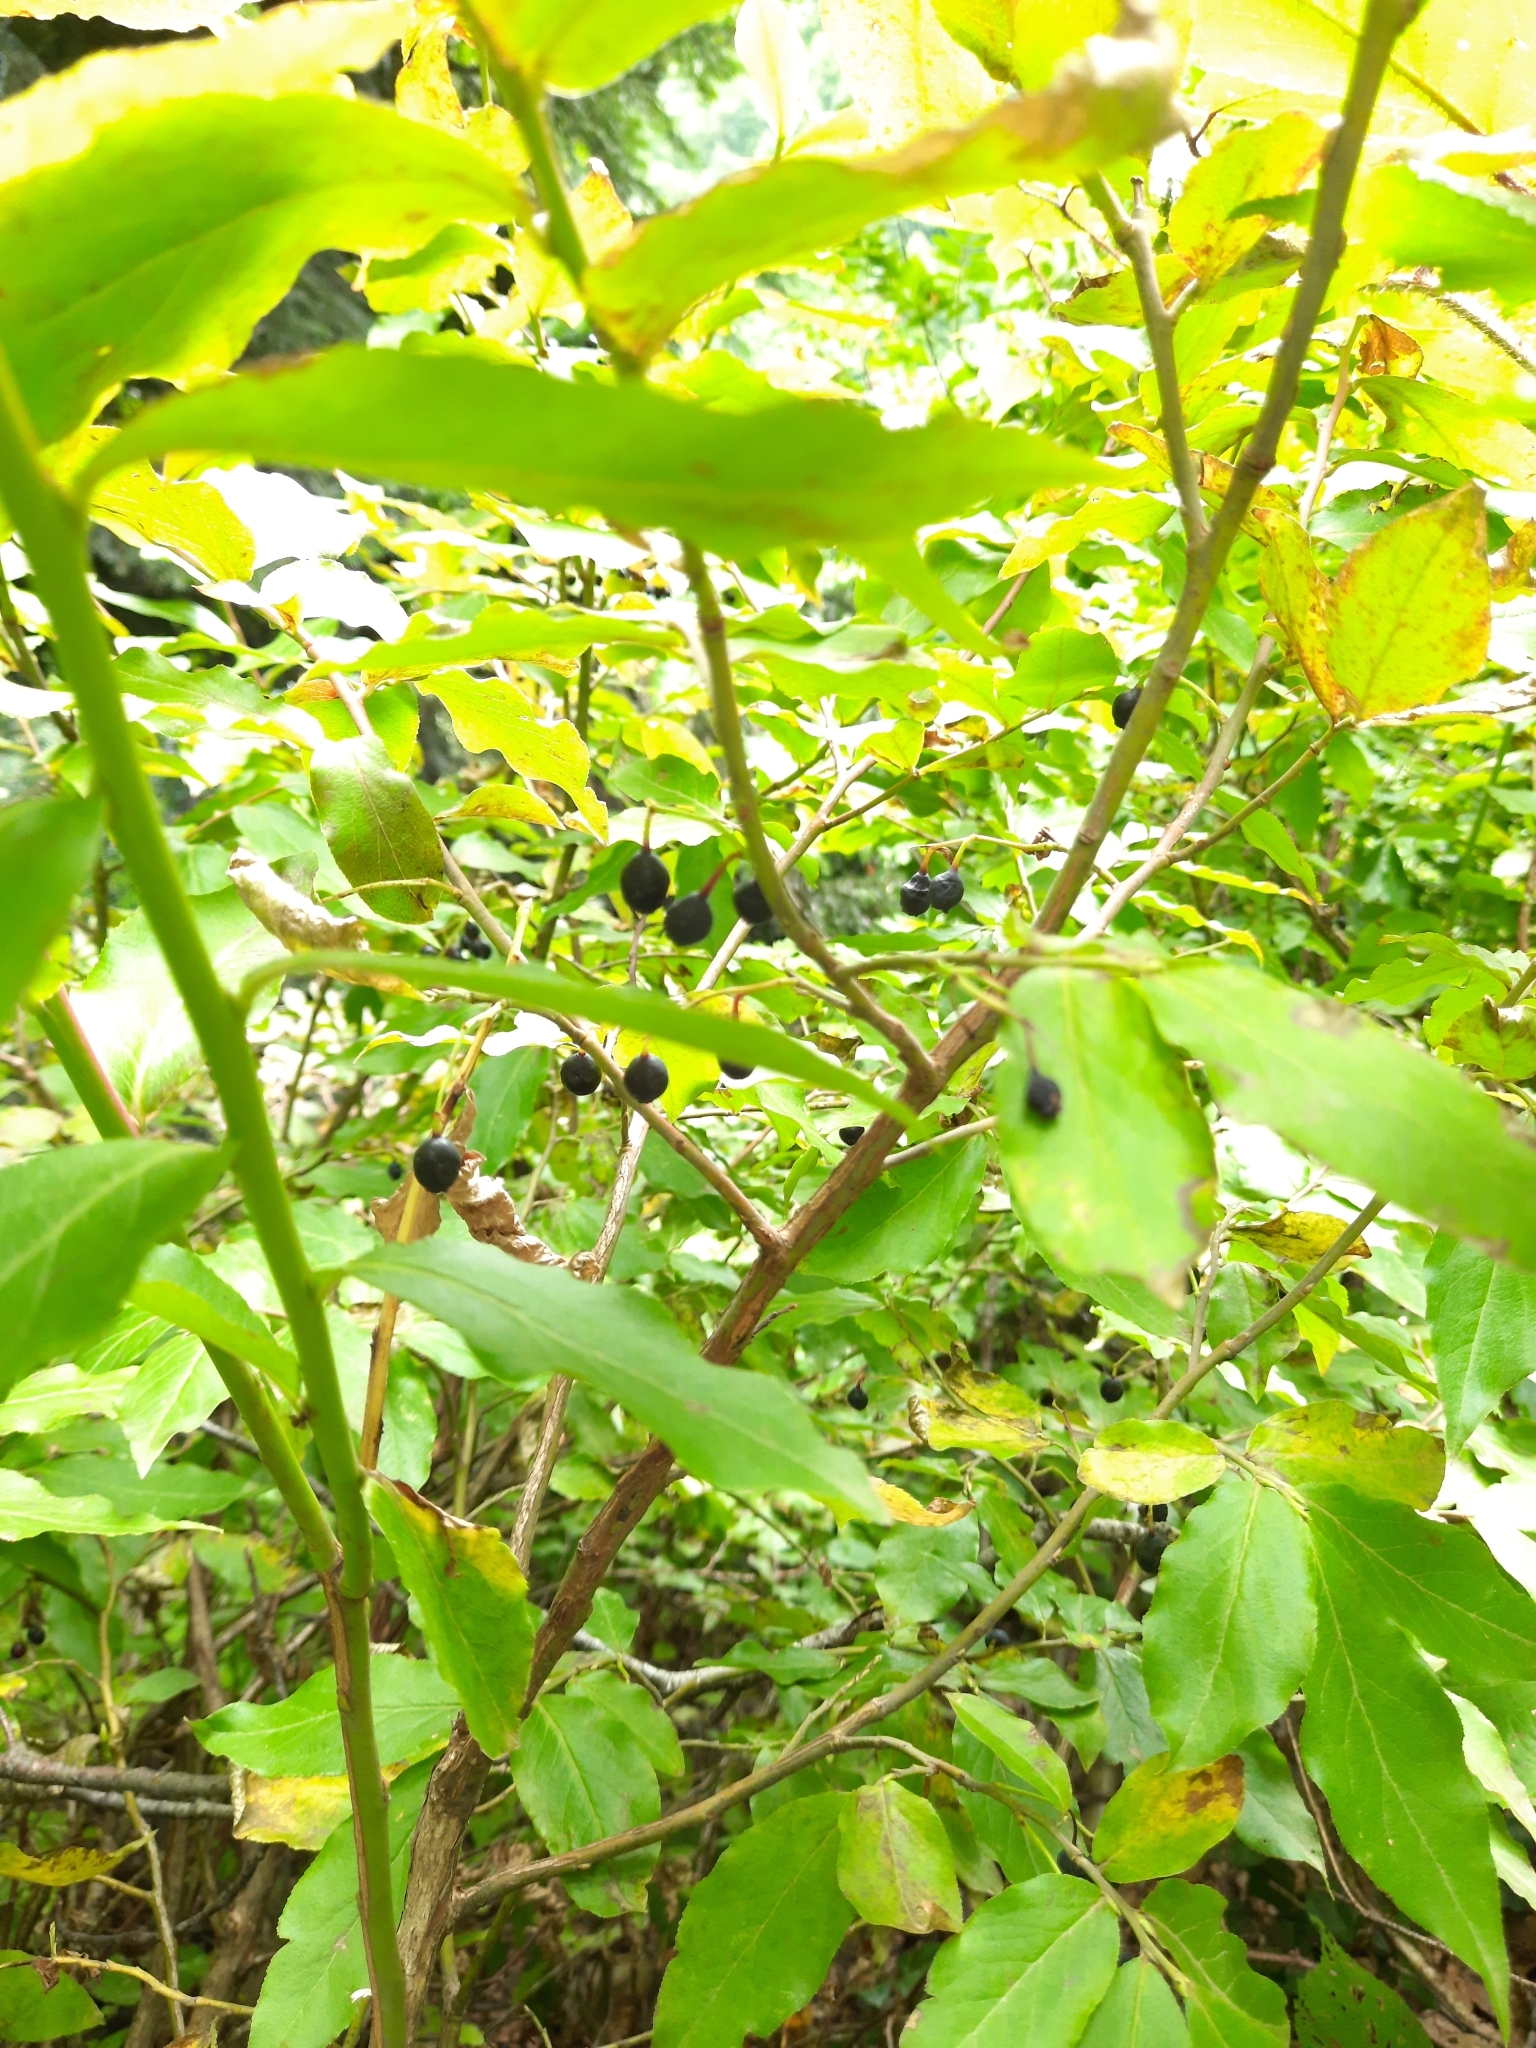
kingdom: Plantae
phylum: Tracheophyta
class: Magnoliopsida
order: Ericales
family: Ericaceae
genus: Vaccinium
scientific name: Vaccinium arctostaphylos
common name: Caucasian whortleberry
